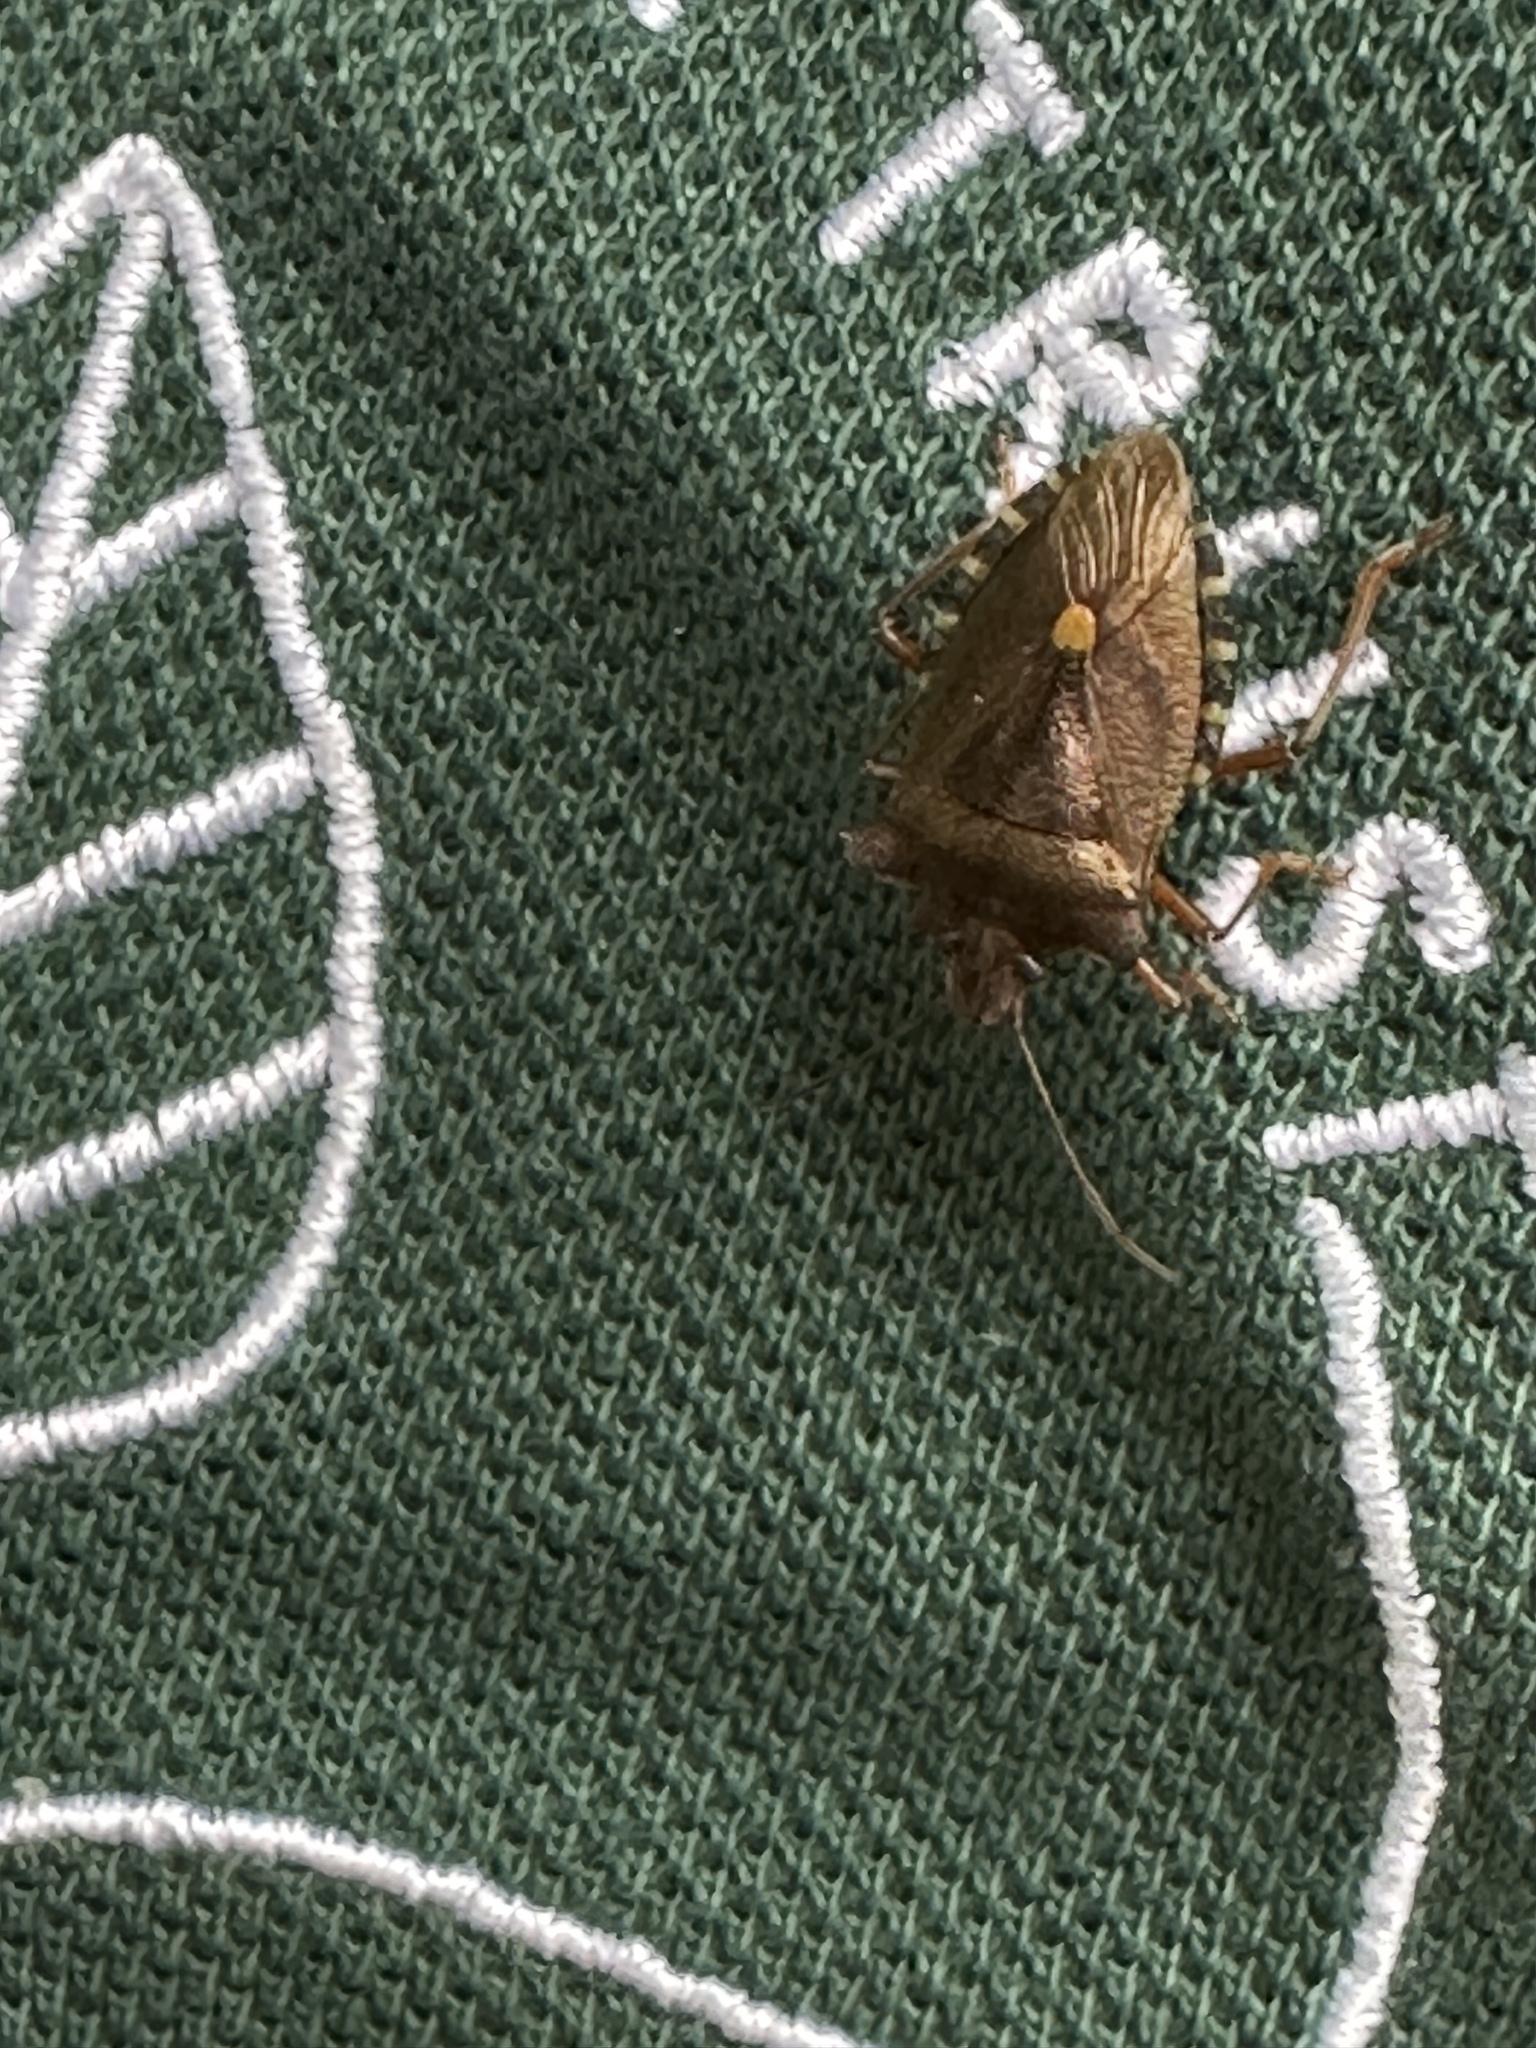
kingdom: Animalia
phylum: Arthropoda
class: Insecta
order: Hemiptera
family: Pentatomidae
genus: Pentatoma
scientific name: Pentatoma rufipes
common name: Forest bug
